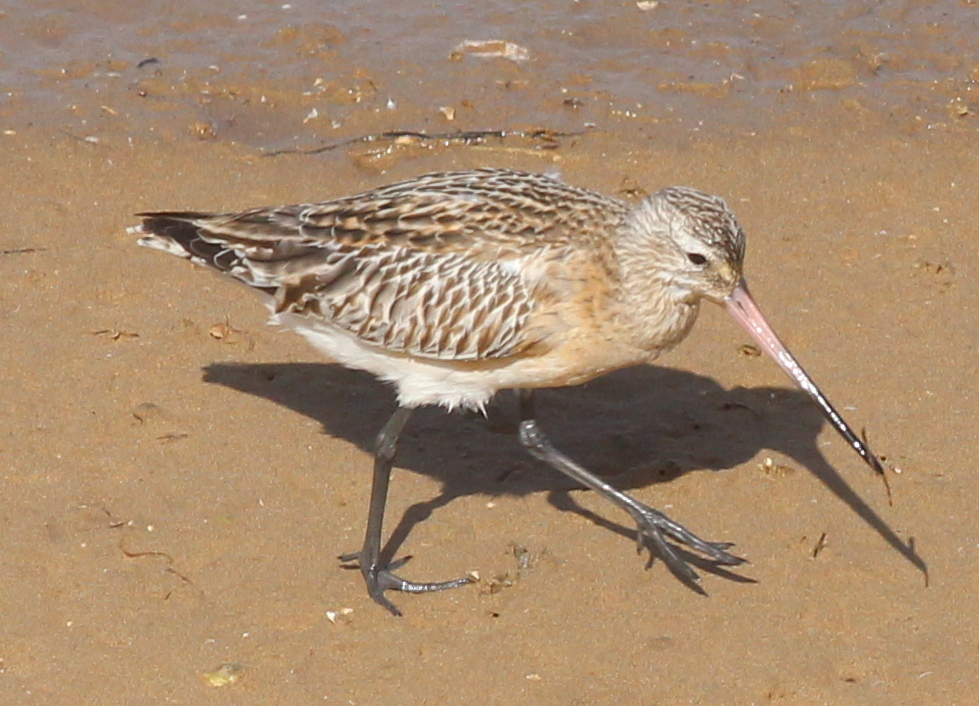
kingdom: Animalia
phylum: Chordata
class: Aves
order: Charadriiformes
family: Scolopacidae
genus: Limosa
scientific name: Limosa lapponica
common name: Bar-tailed godwit
